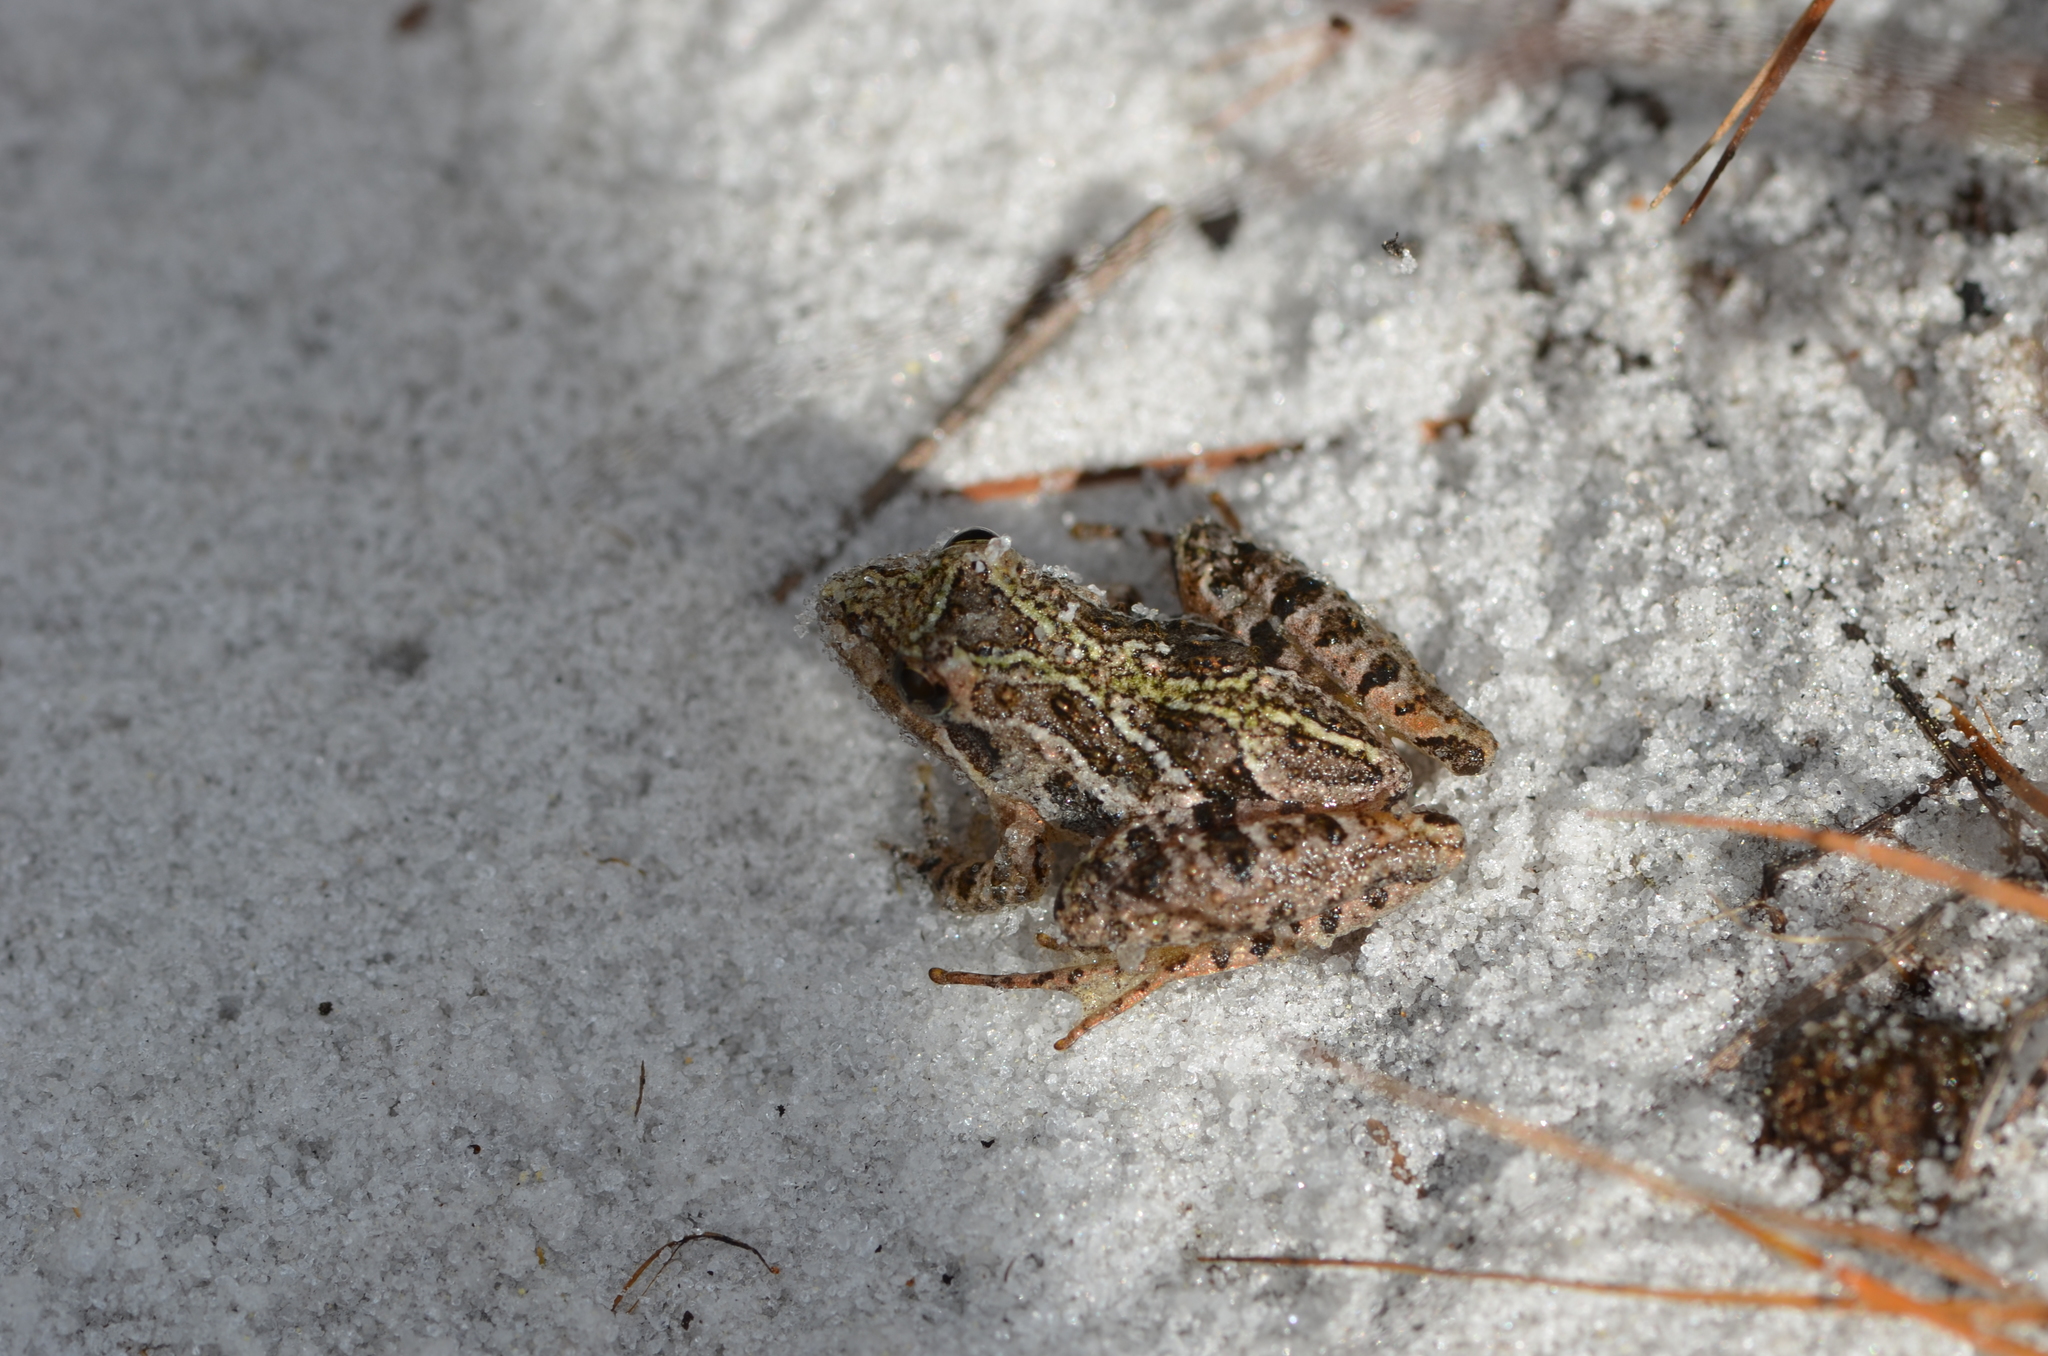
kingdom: Animalia
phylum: Chordata
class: Amphibia
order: Anura
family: Hylidae
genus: Acris
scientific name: Acris gryllus
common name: Southern cricket frog
